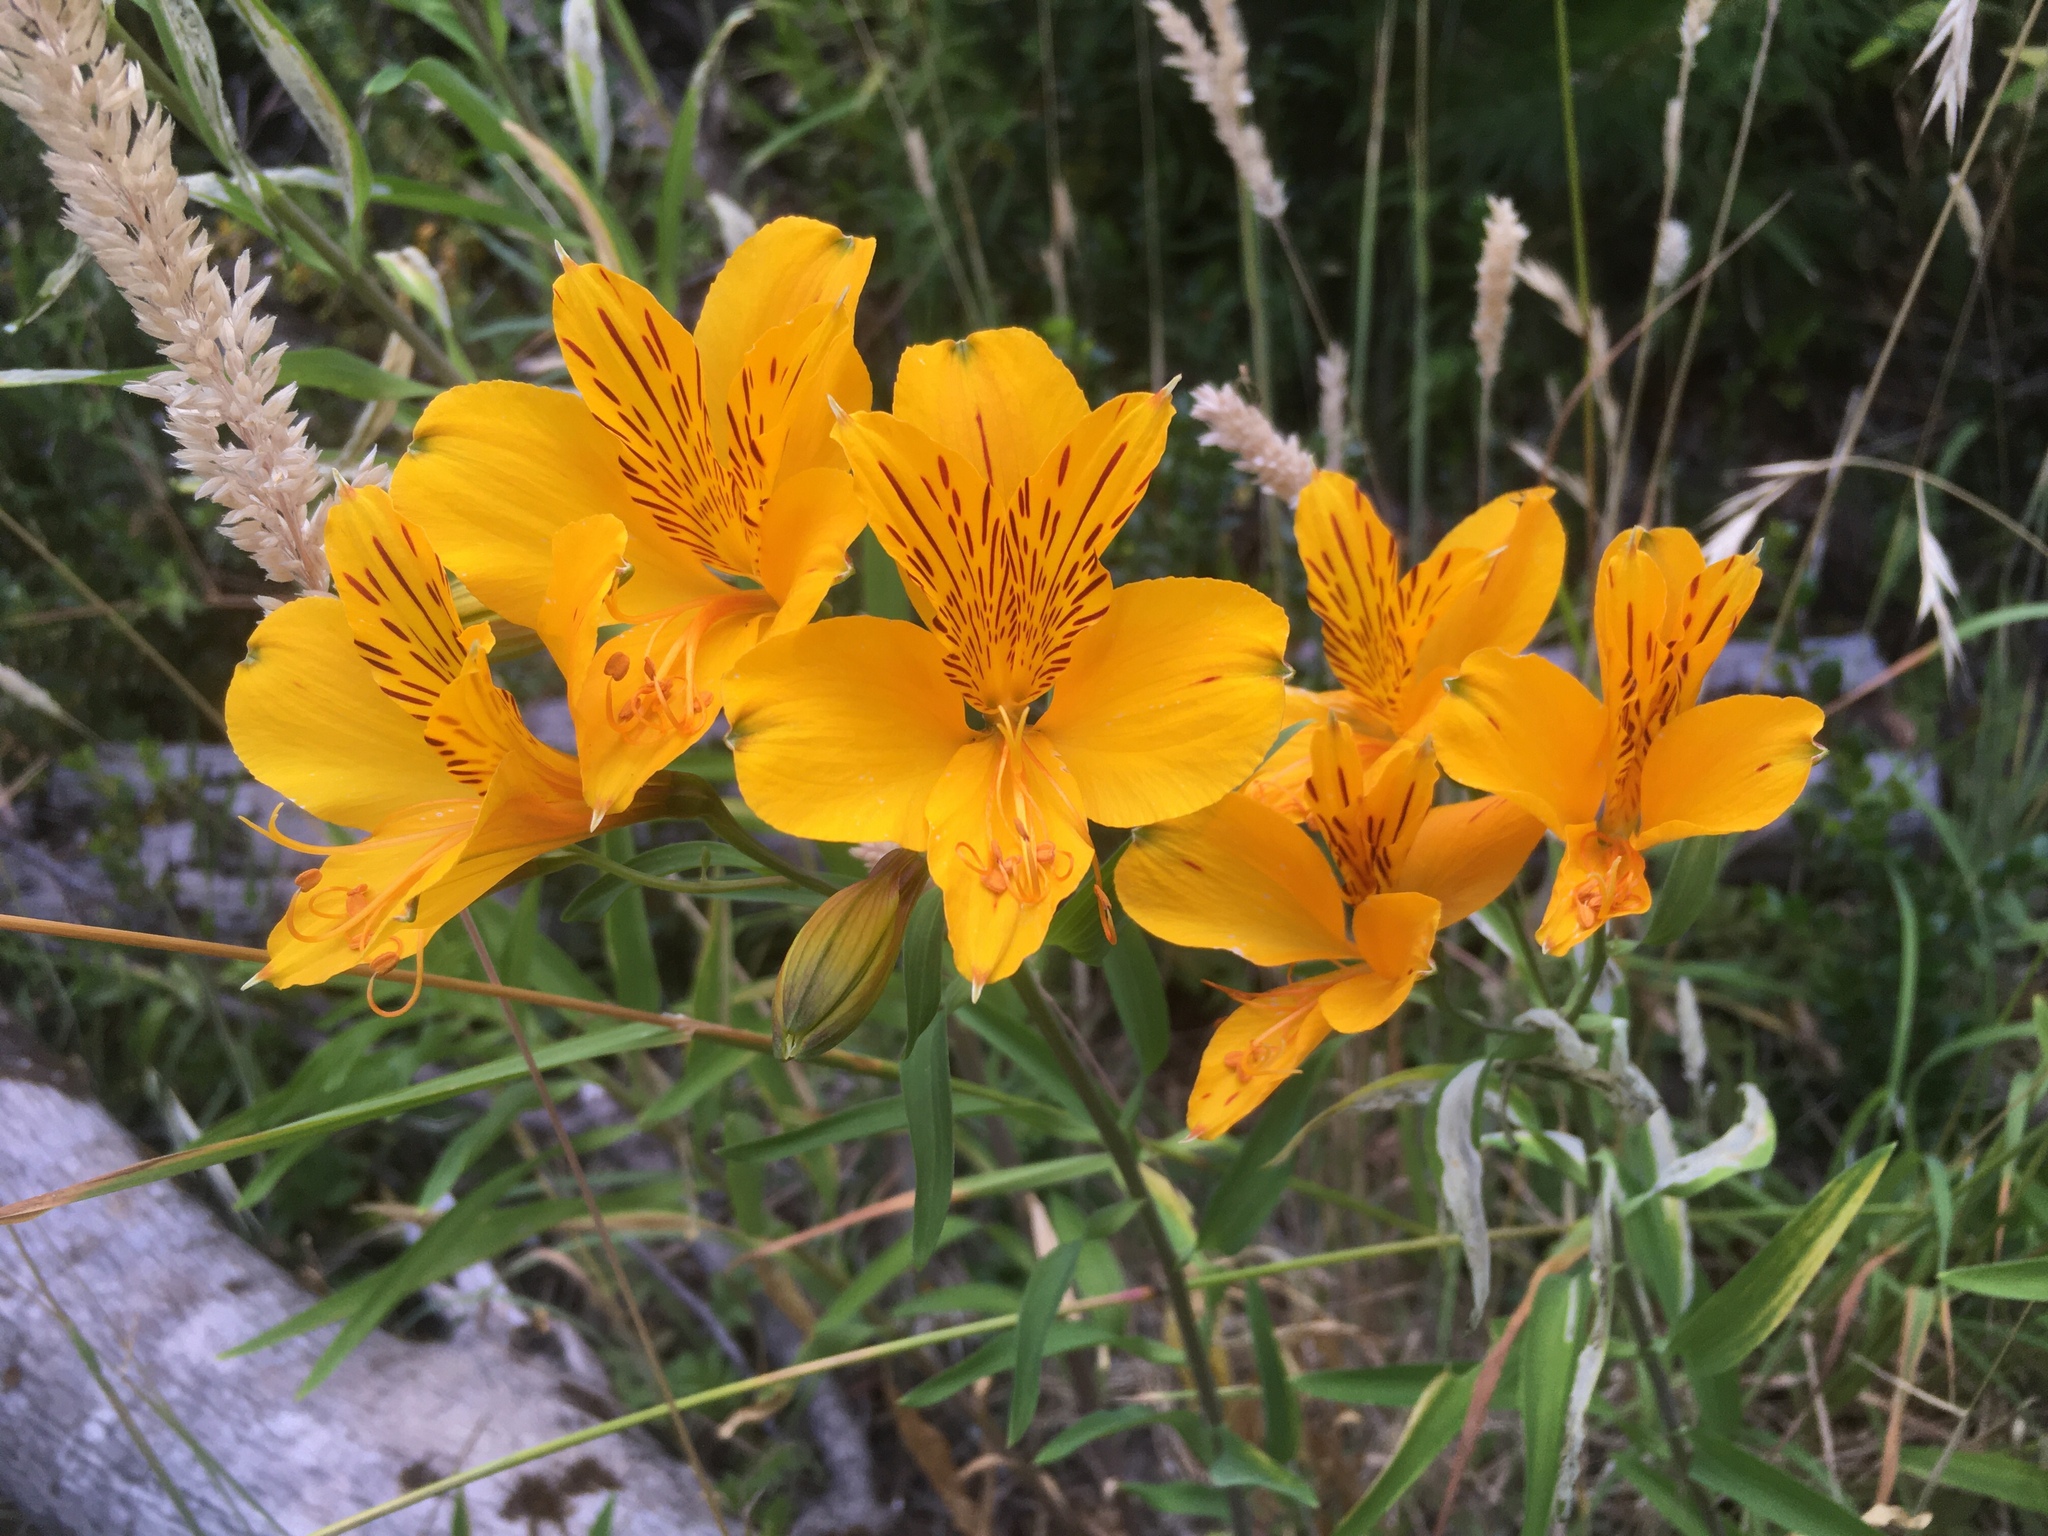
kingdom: Plantae
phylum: Tracheophyta
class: Liliopsida
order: Liliales
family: Alstroemeriaceae
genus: Alstroemeria
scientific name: Alstroemeria aurea
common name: Peruvian lily
